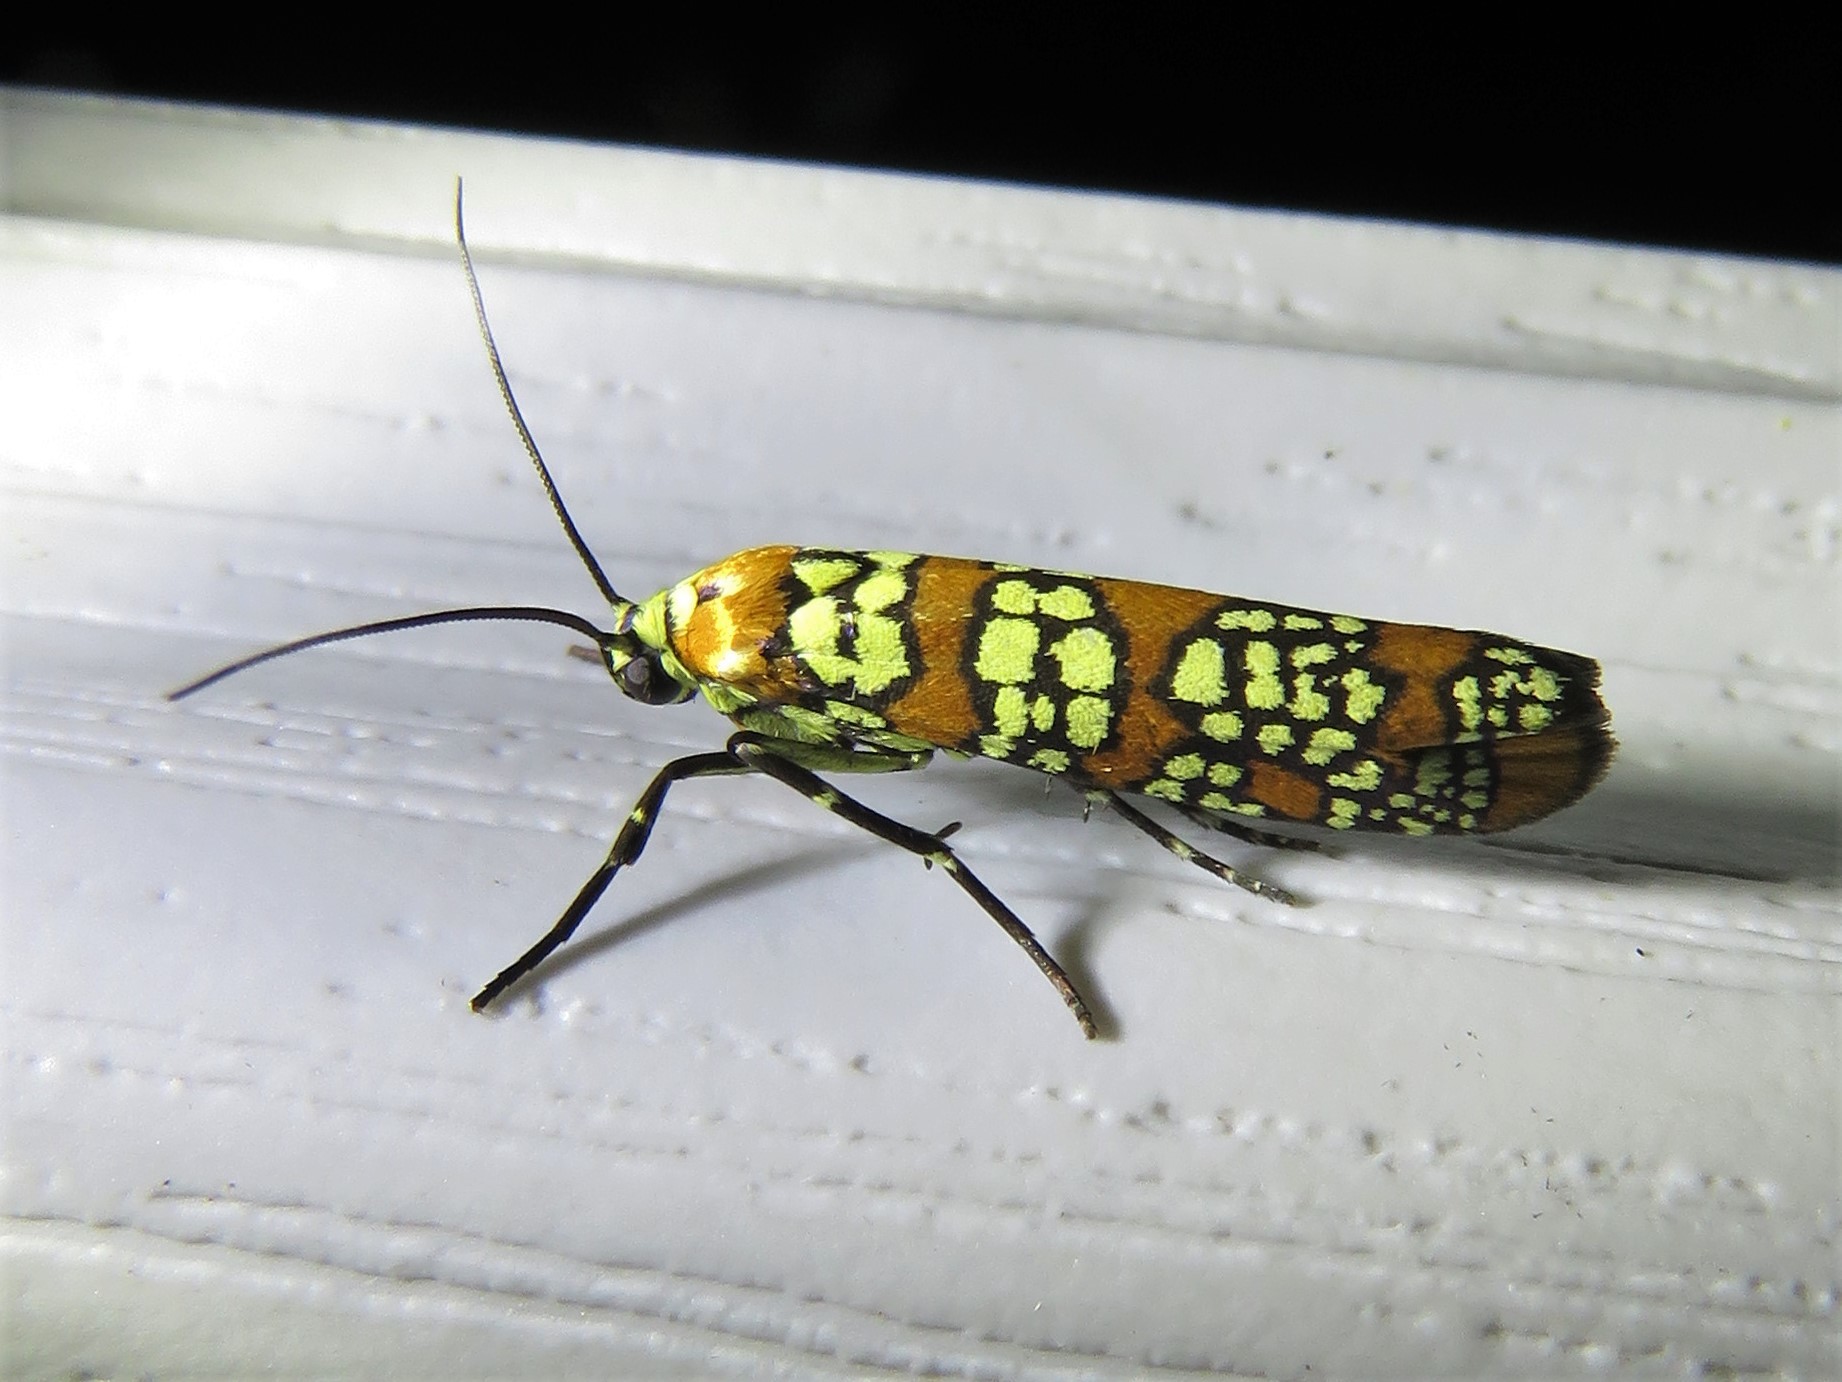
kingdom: Animalia
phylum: Arthropoda
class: Insecta
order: Lepidoptera
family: Attevidae
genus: Atteva
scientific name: Atteva punctella
